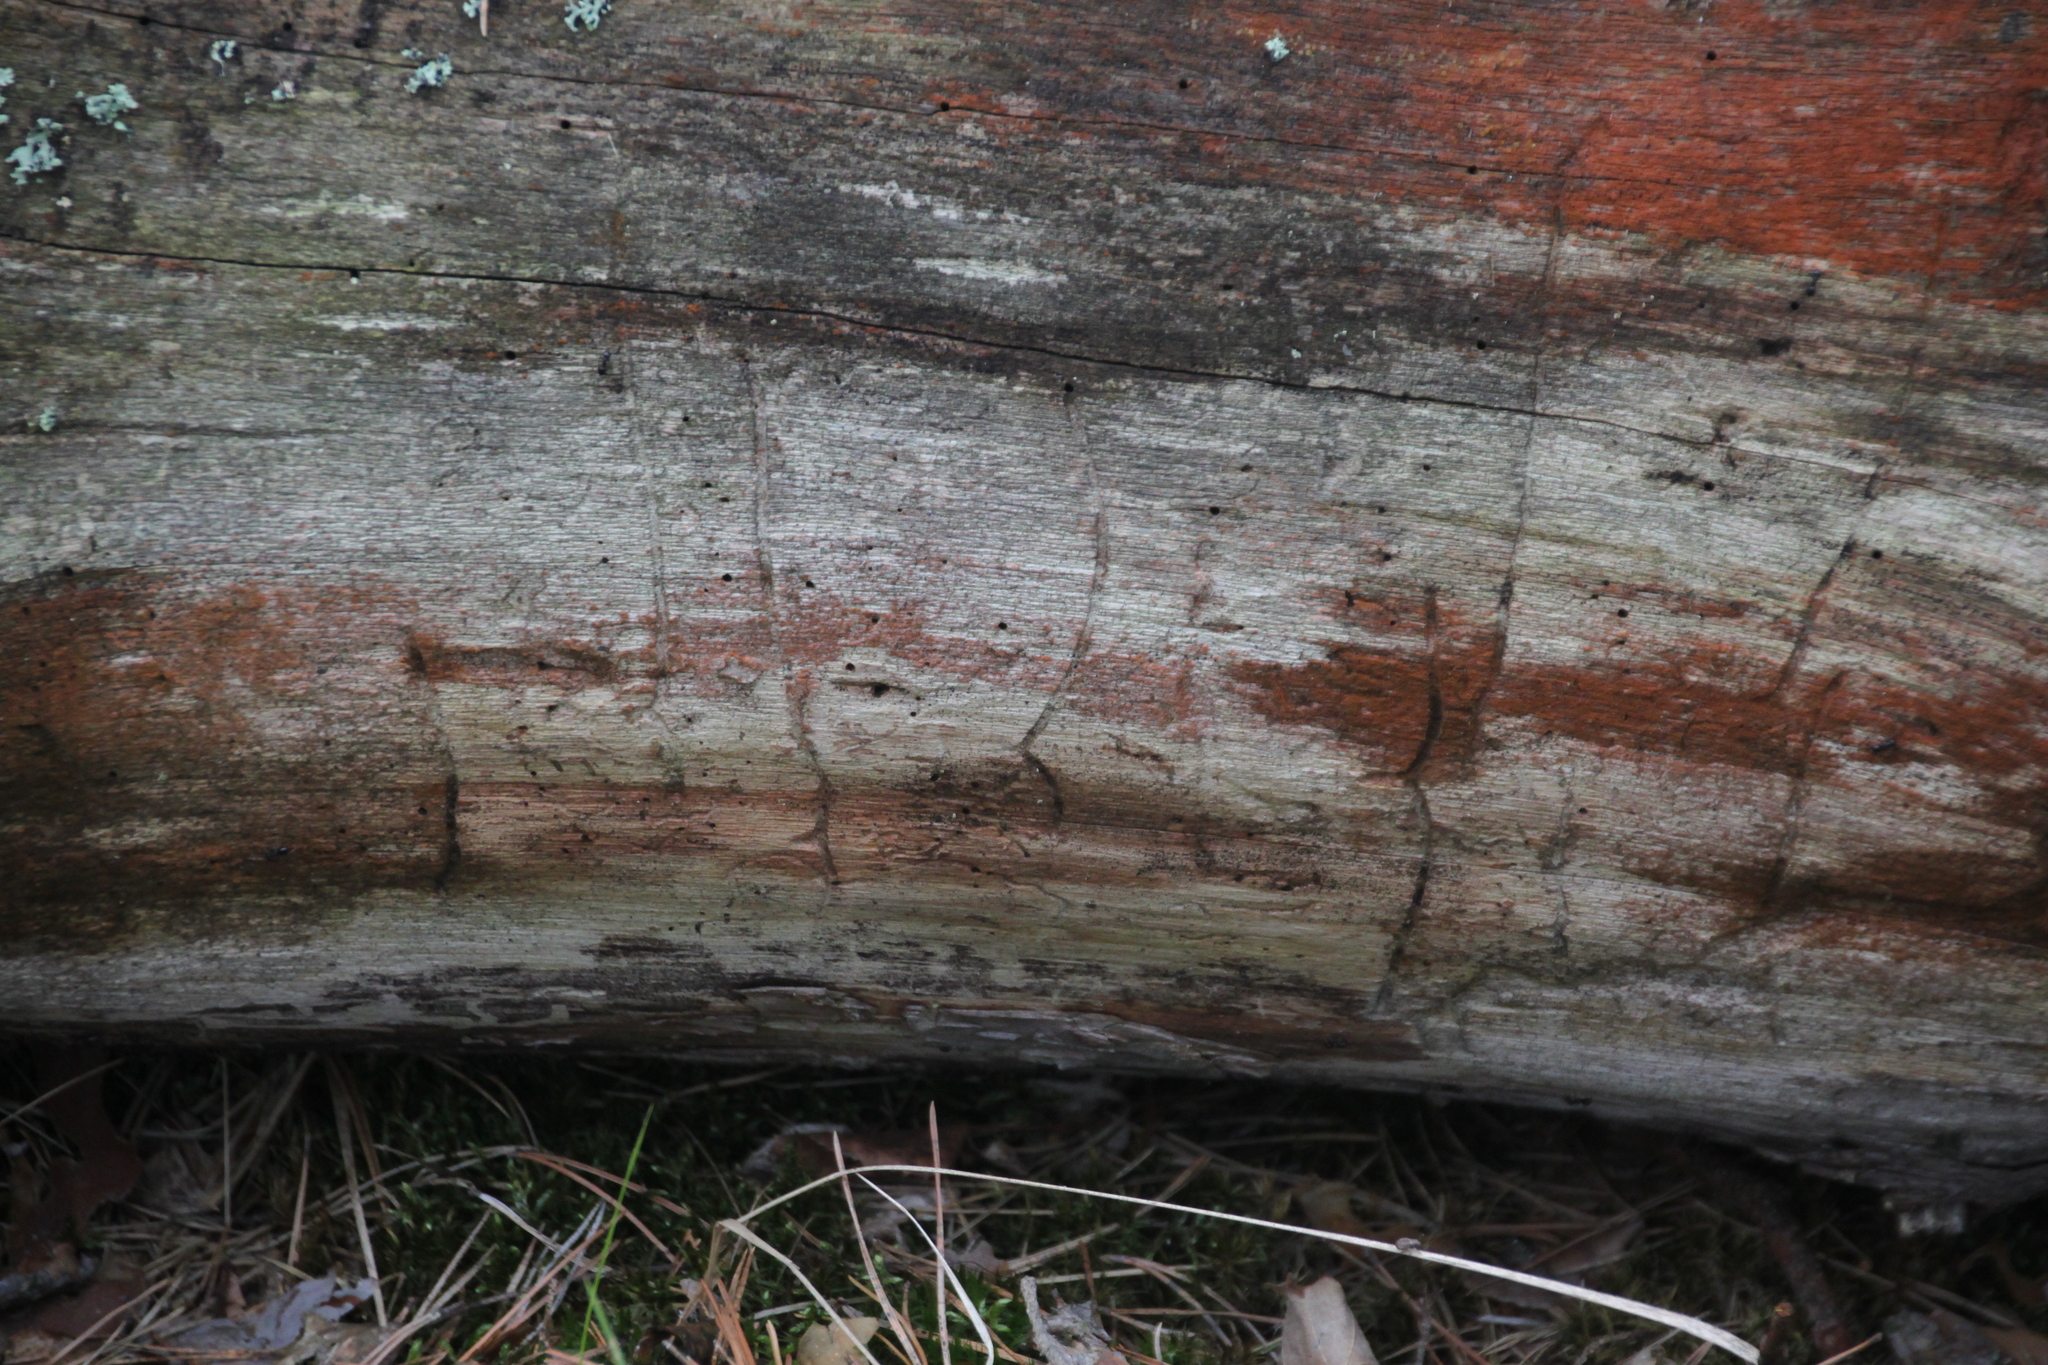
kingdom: Animalia
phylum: Arthropoda
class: Insecta
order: Coleoptera
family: Curculionidae
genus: Tomicus
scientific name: Tomicus minor
